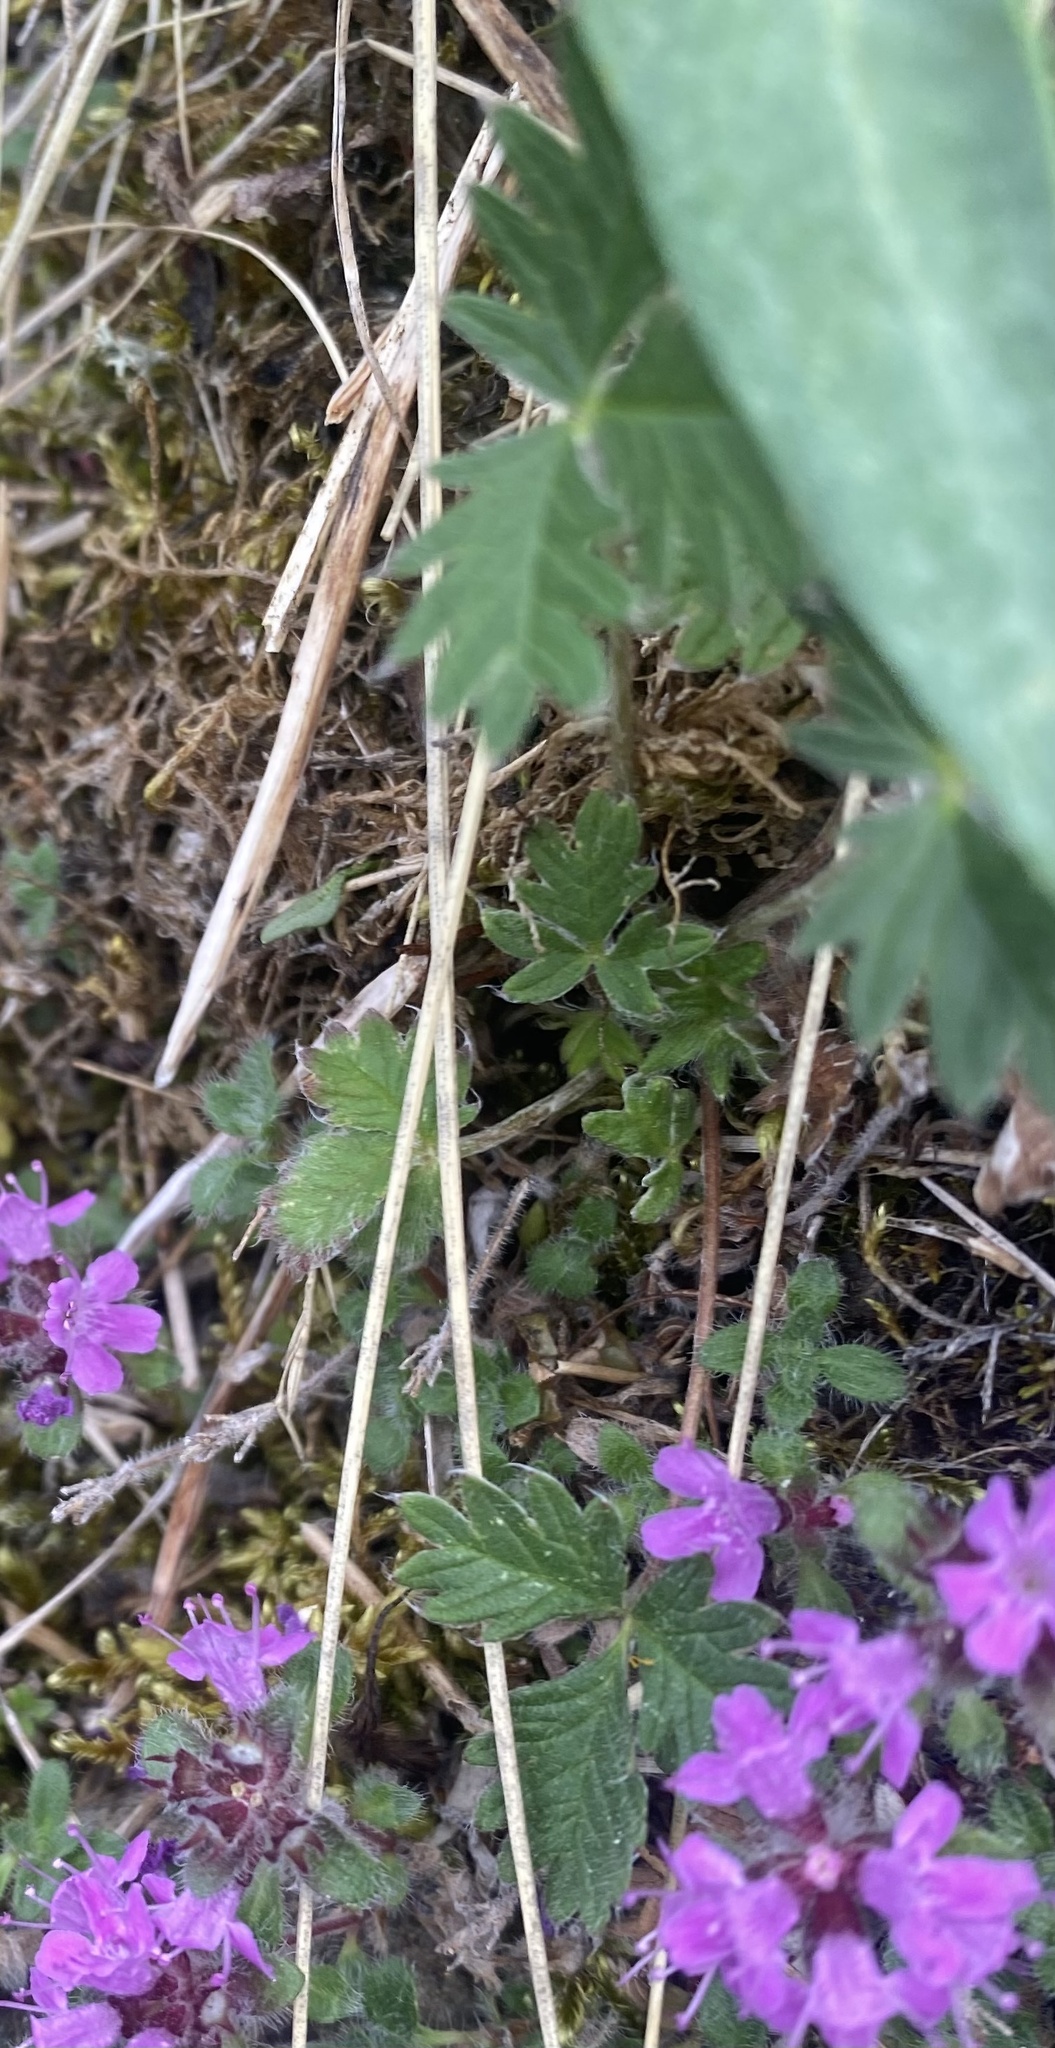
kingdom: Plantae
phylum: Tracheophyta
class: Magnoliopsida
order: Rosales
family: Rosaceae
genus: Potentilla
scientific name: Potentilla
